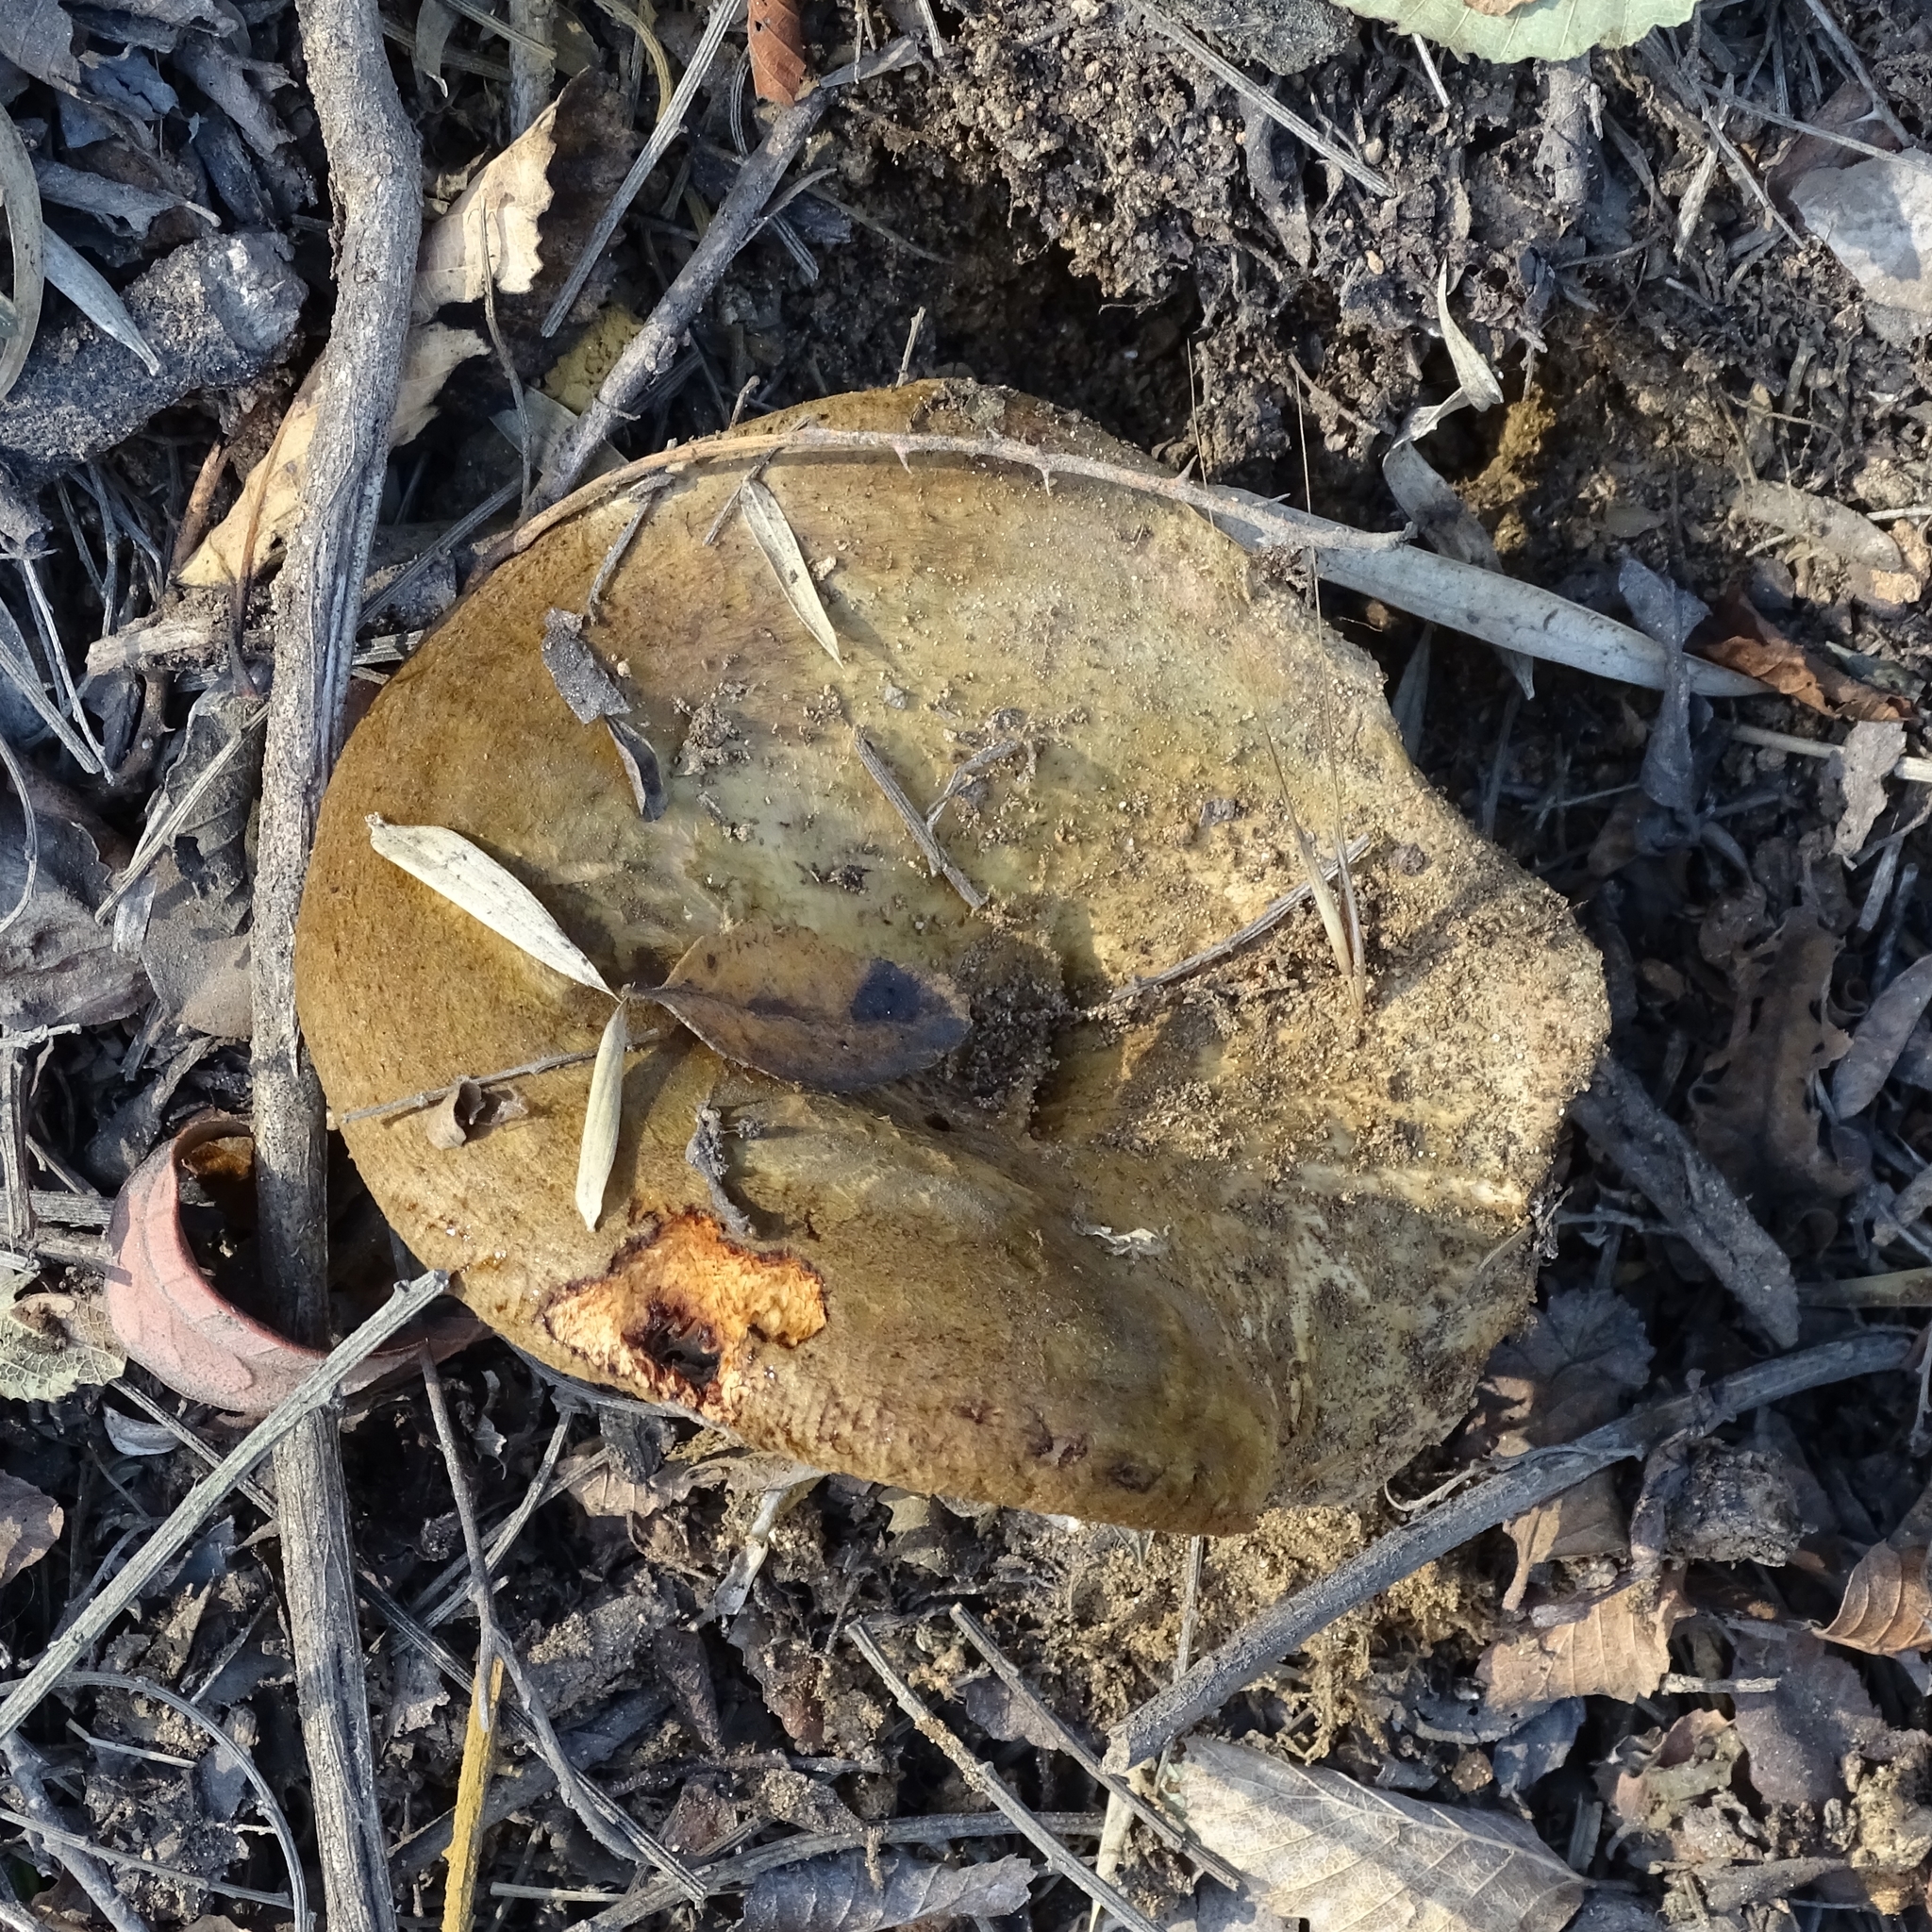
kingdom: Fungi
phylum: Basidiomycota
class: Agaricomycetes
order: Boletales
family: Paxillaceae
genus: Paxillus
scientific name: Paxillus involutus
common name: Brown roll rim
